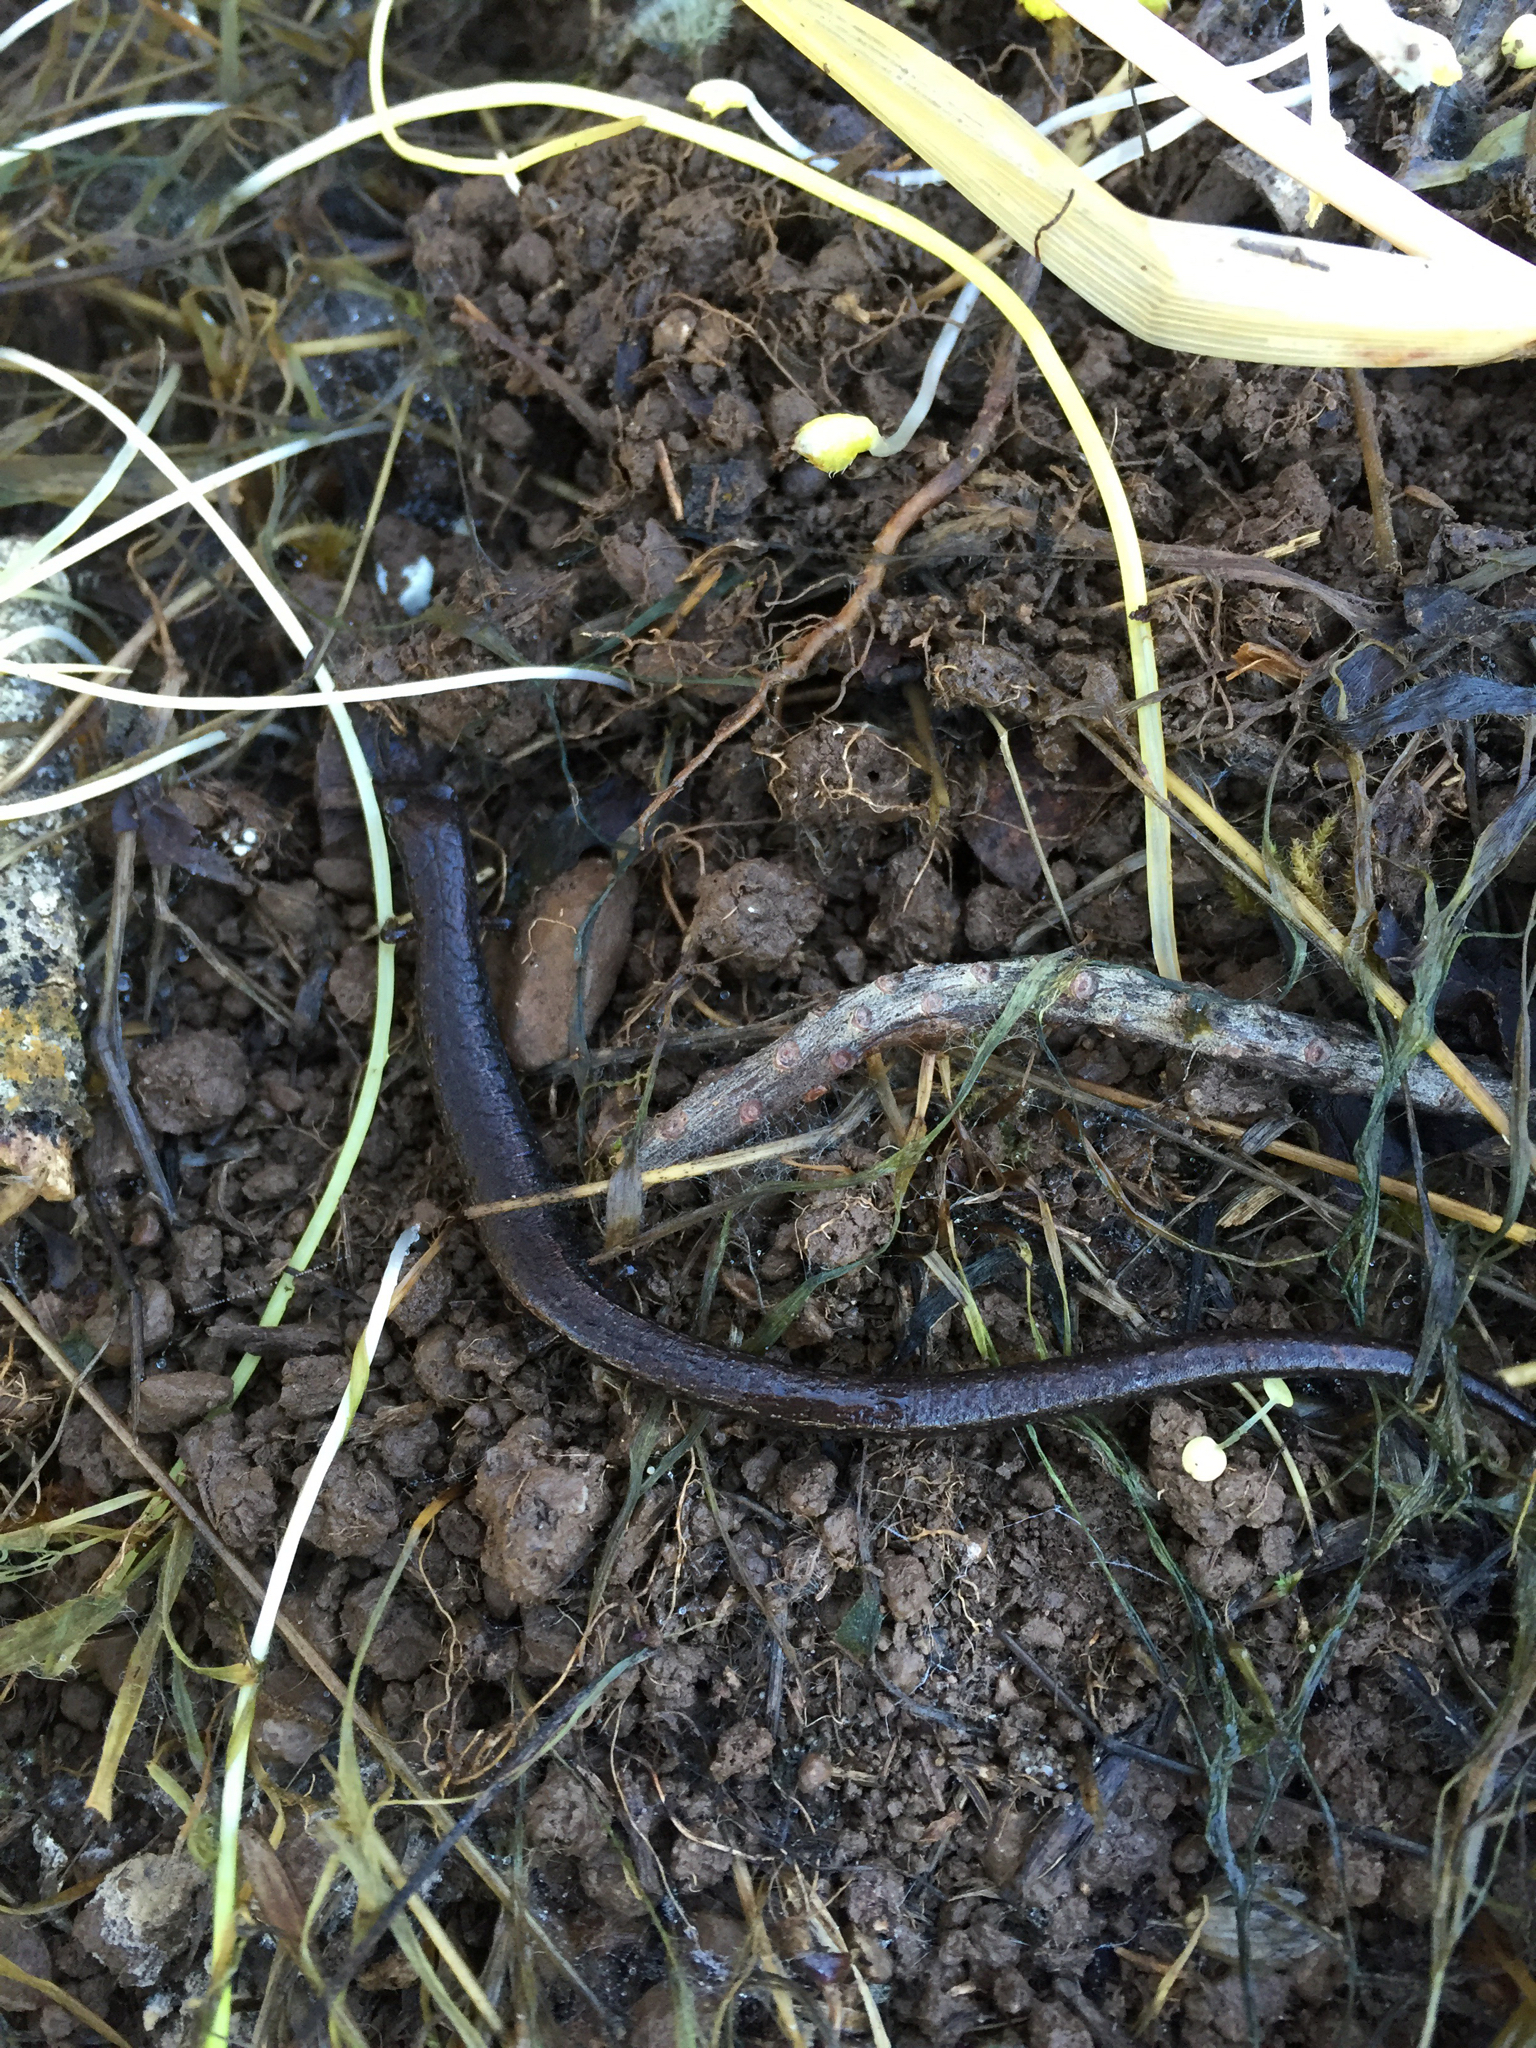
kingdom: Animalia
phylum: Chordata
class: Amphibia
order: Caudata
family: Plethodontidae
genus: Batrachoseps
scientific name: Batrachoseps attenuatus
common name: California slender salamander
